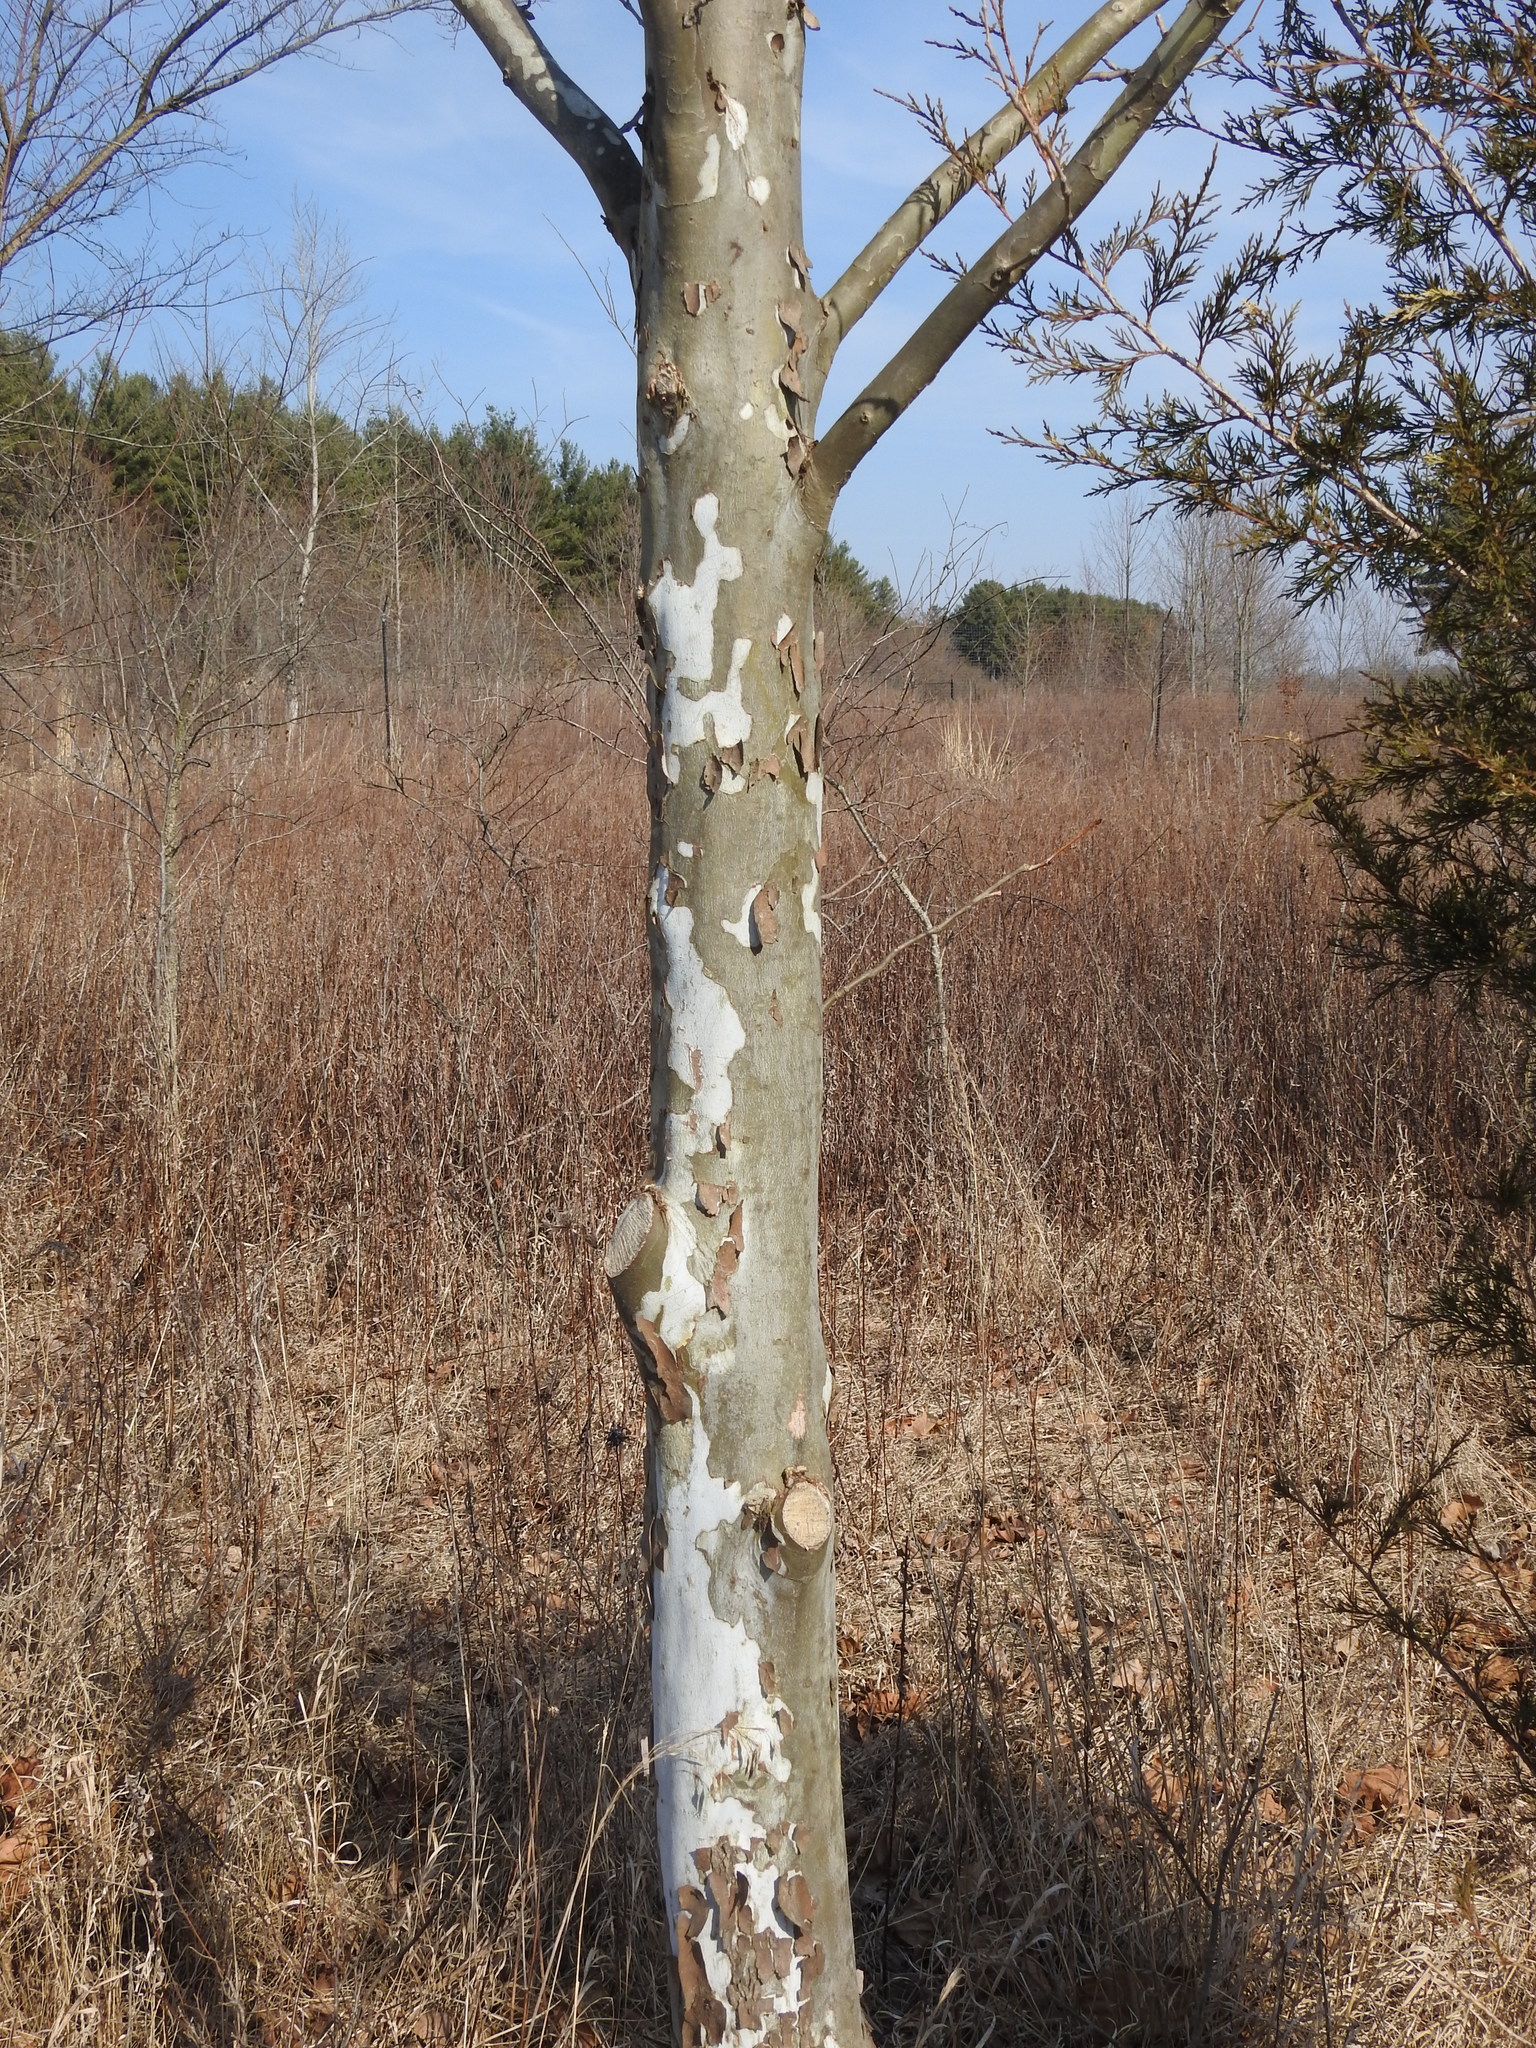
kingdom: Plantae
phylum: Tracheophyta
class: Magnoliopsida
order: Proteales
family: Platanaceae
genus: Platanus
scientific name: Platanus occidentalis
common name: American sycamore
